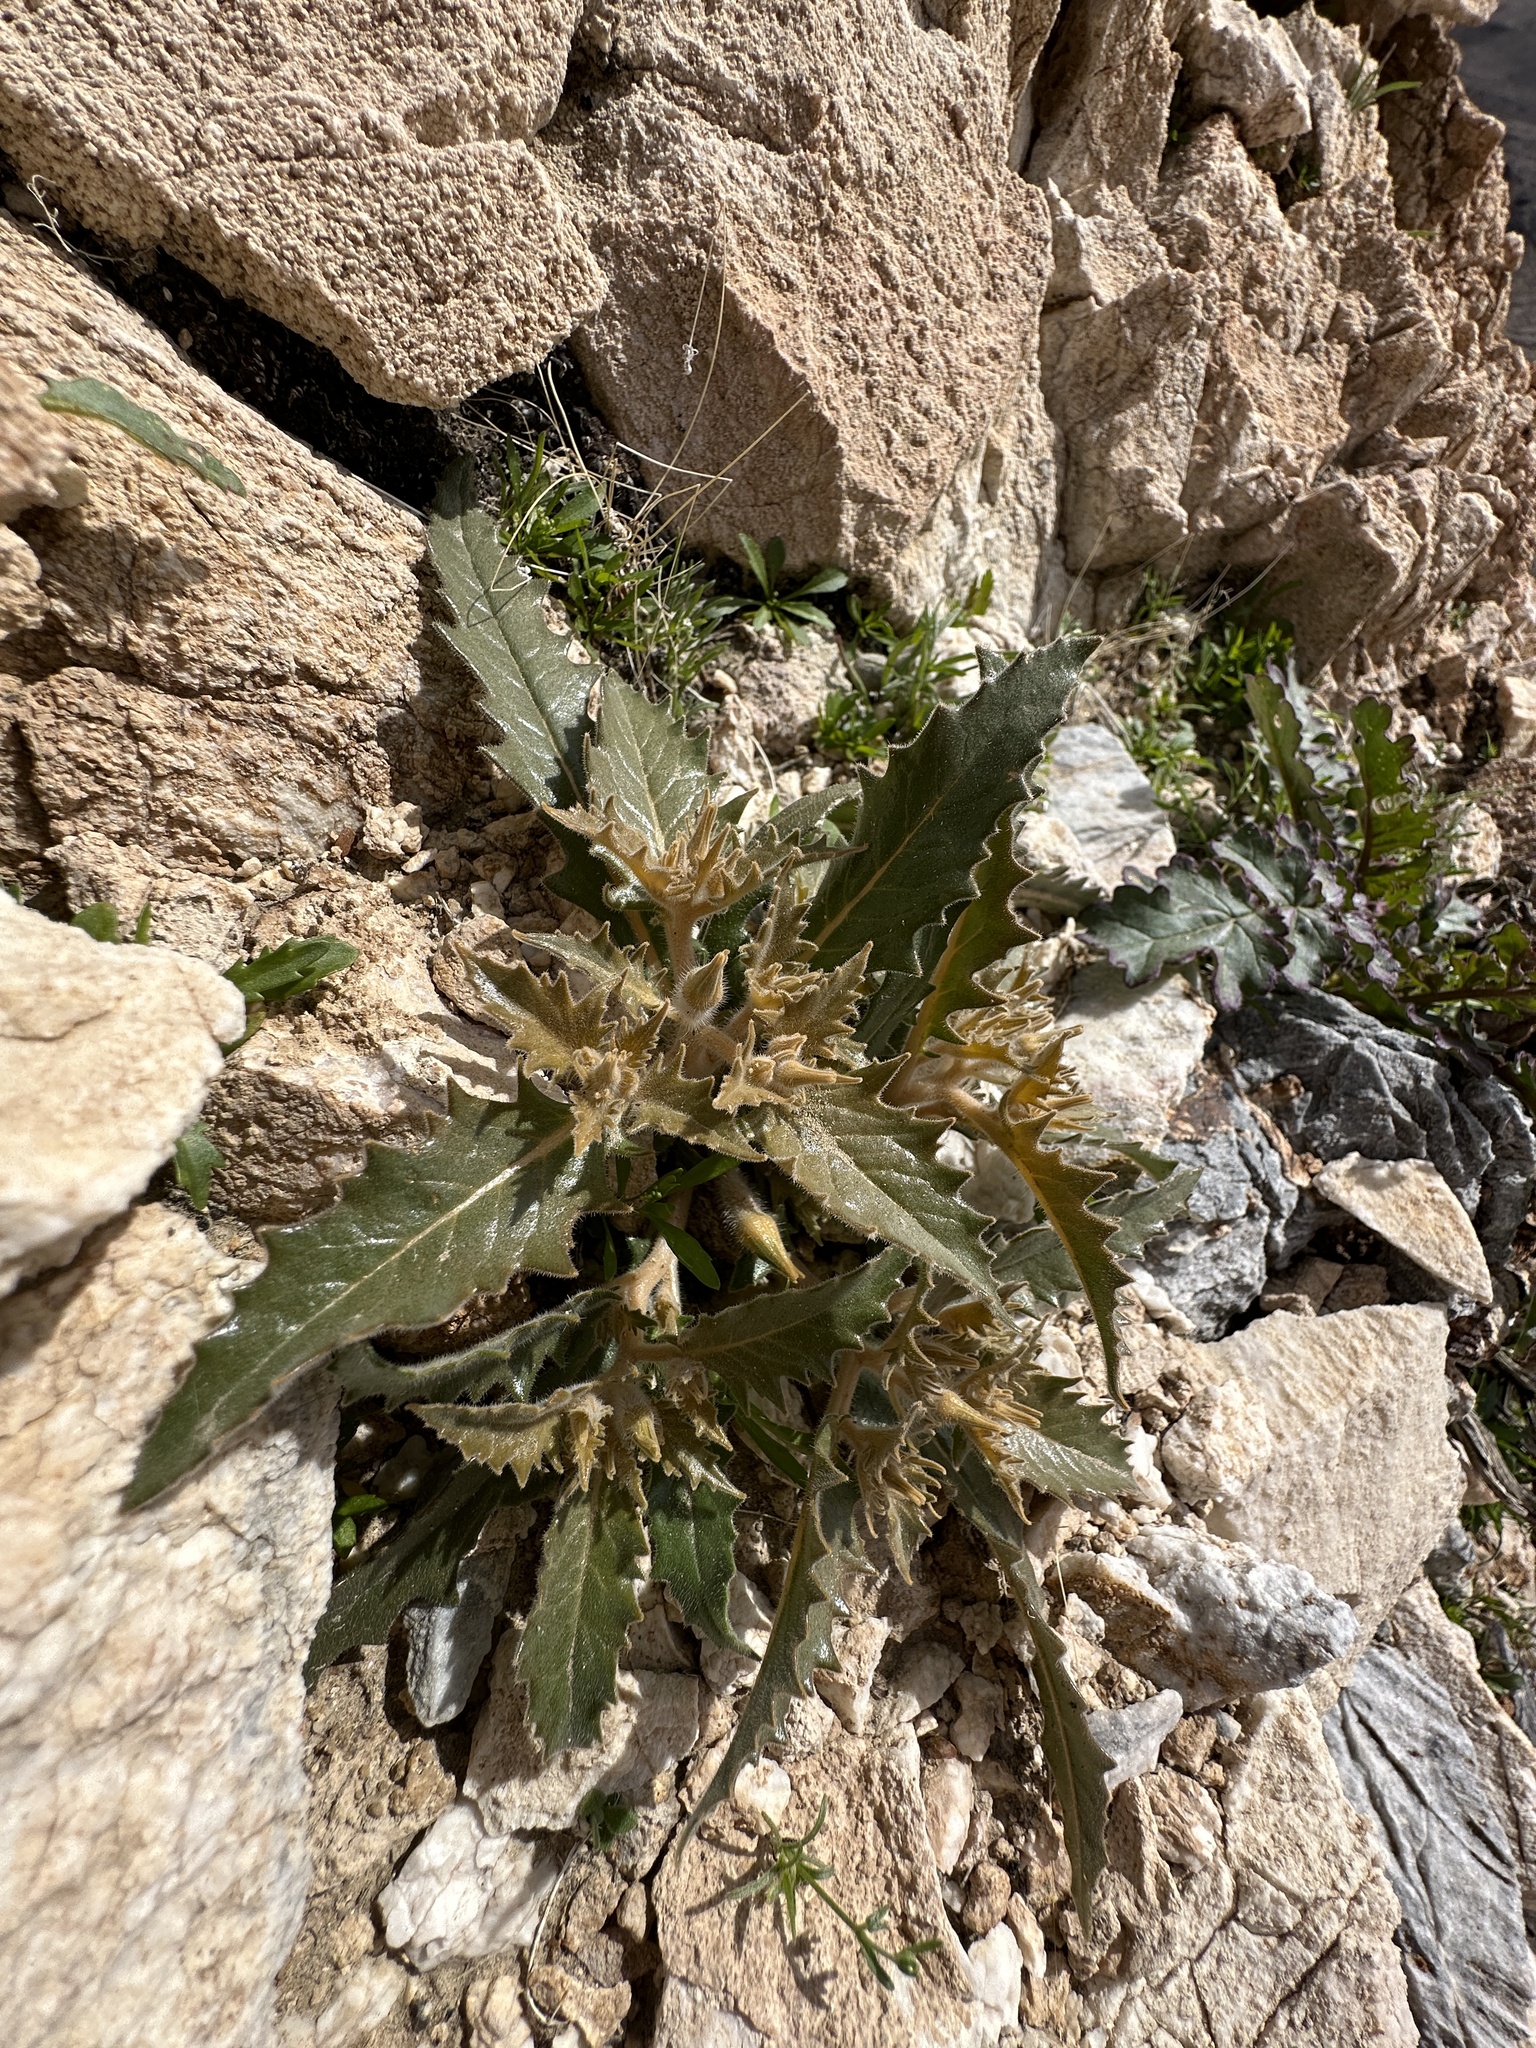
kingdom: Plantae
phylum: Tracheophyta
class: Magnoliopsida
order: Cornales
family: Loasaceae
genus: Mentzelia
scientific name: Mentzelia reflexa
